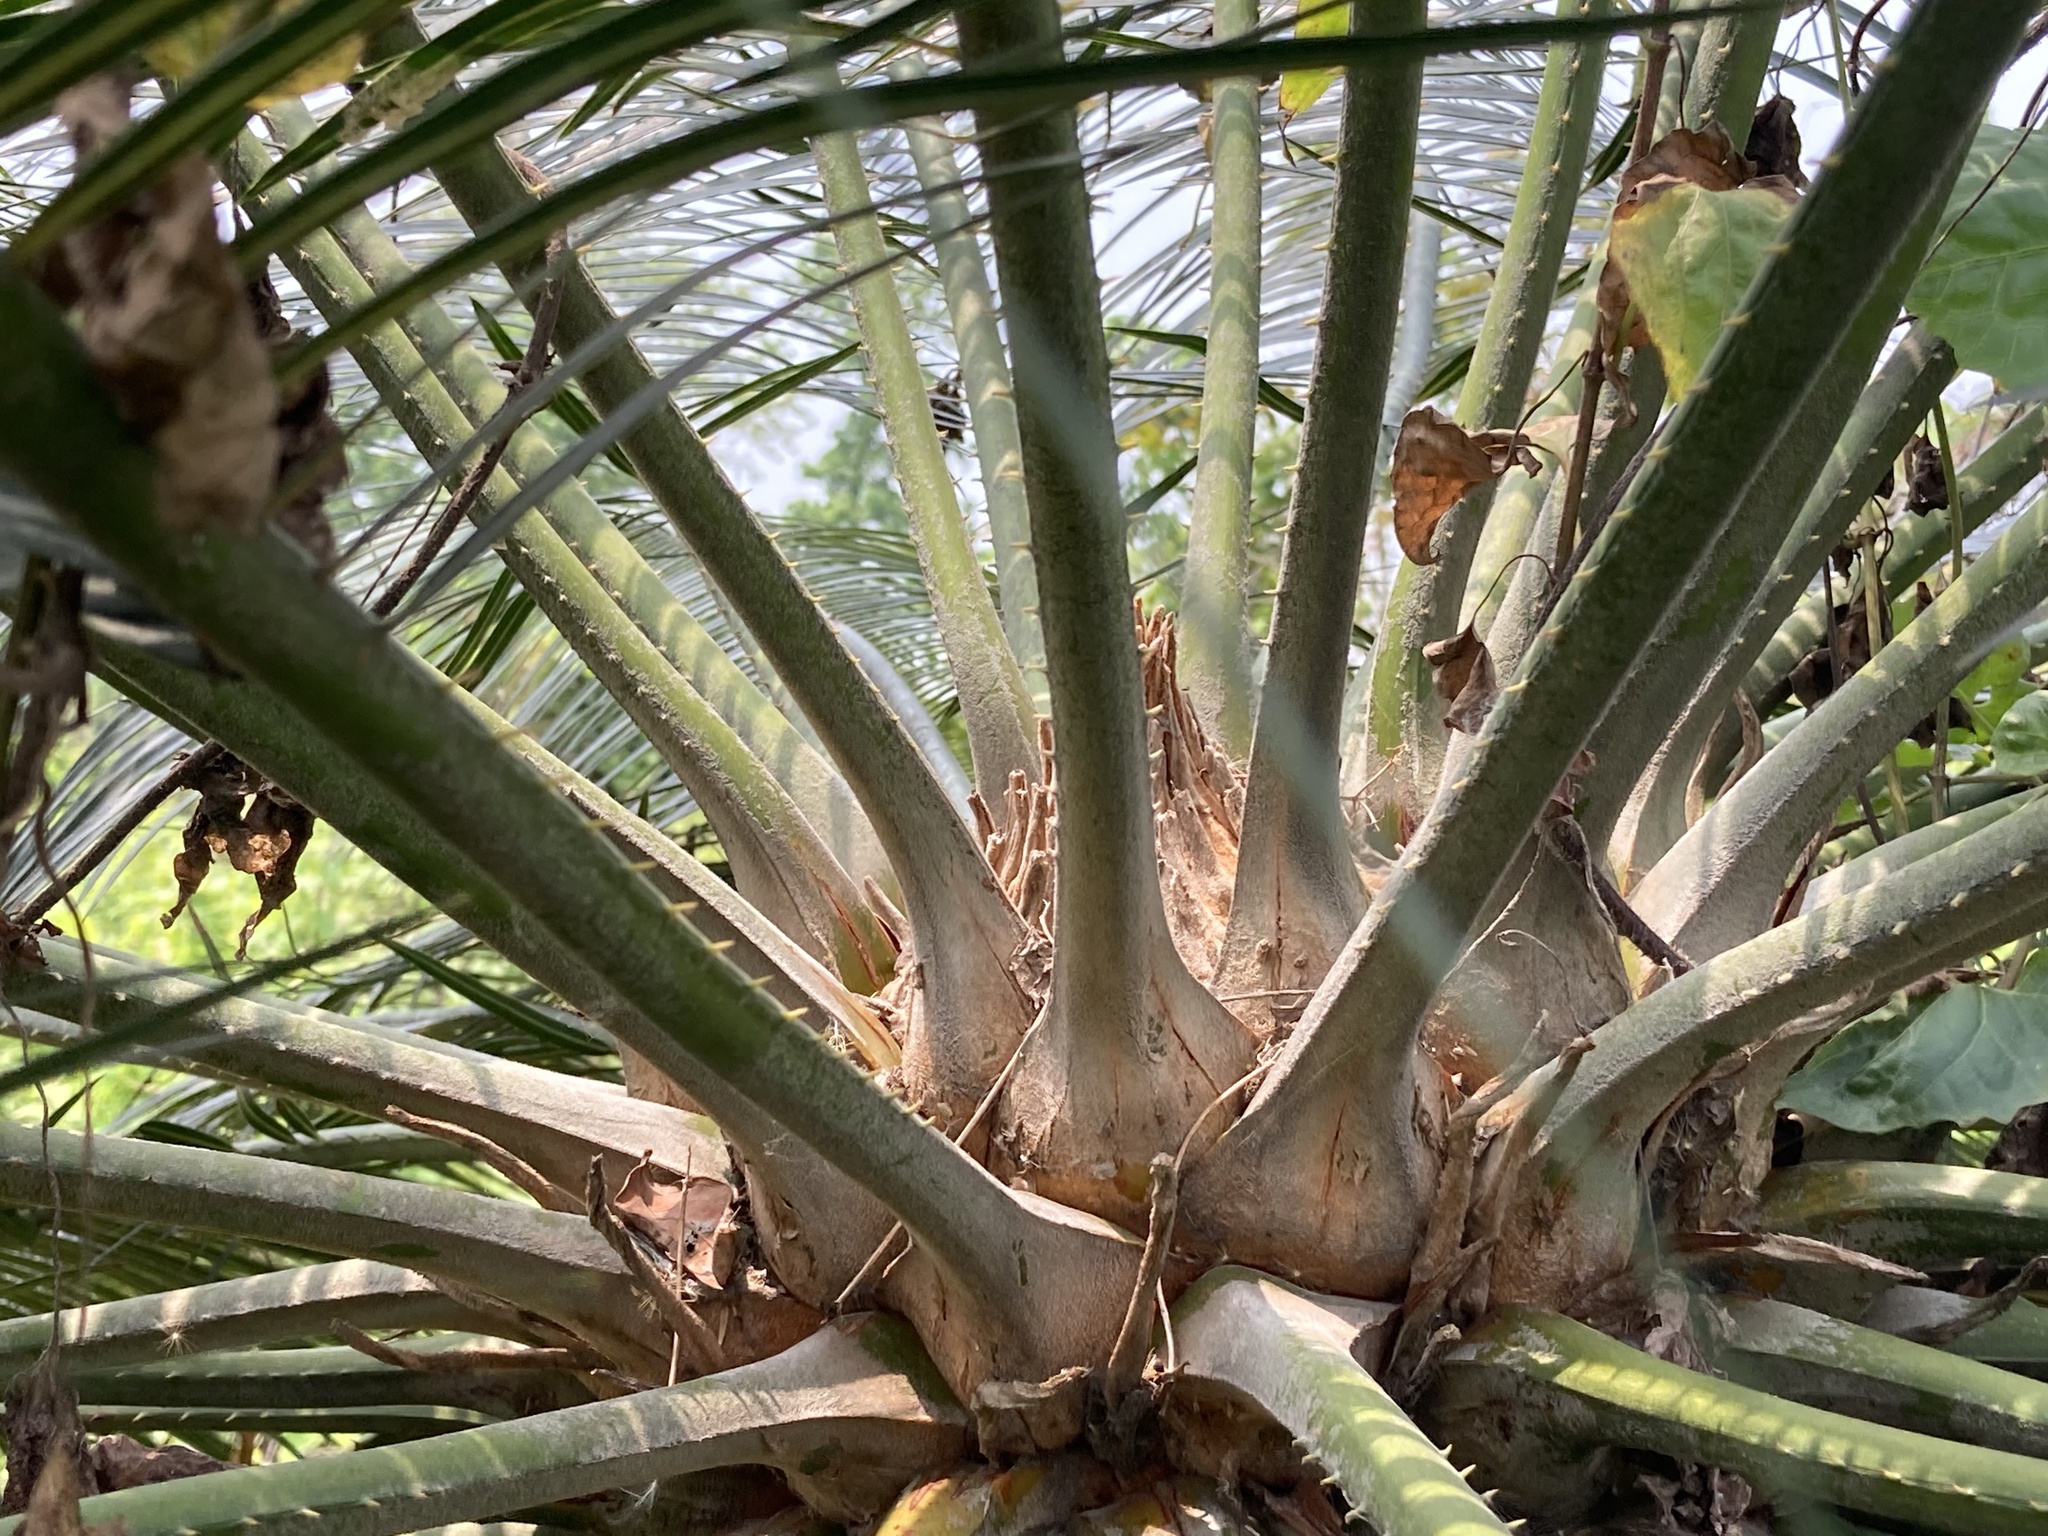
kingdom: Plantae
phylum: Tracheophyta
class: Cycadopsida
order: Cycadales
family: Cycadaceae
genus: Cycas
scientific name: Cycas pectinata
